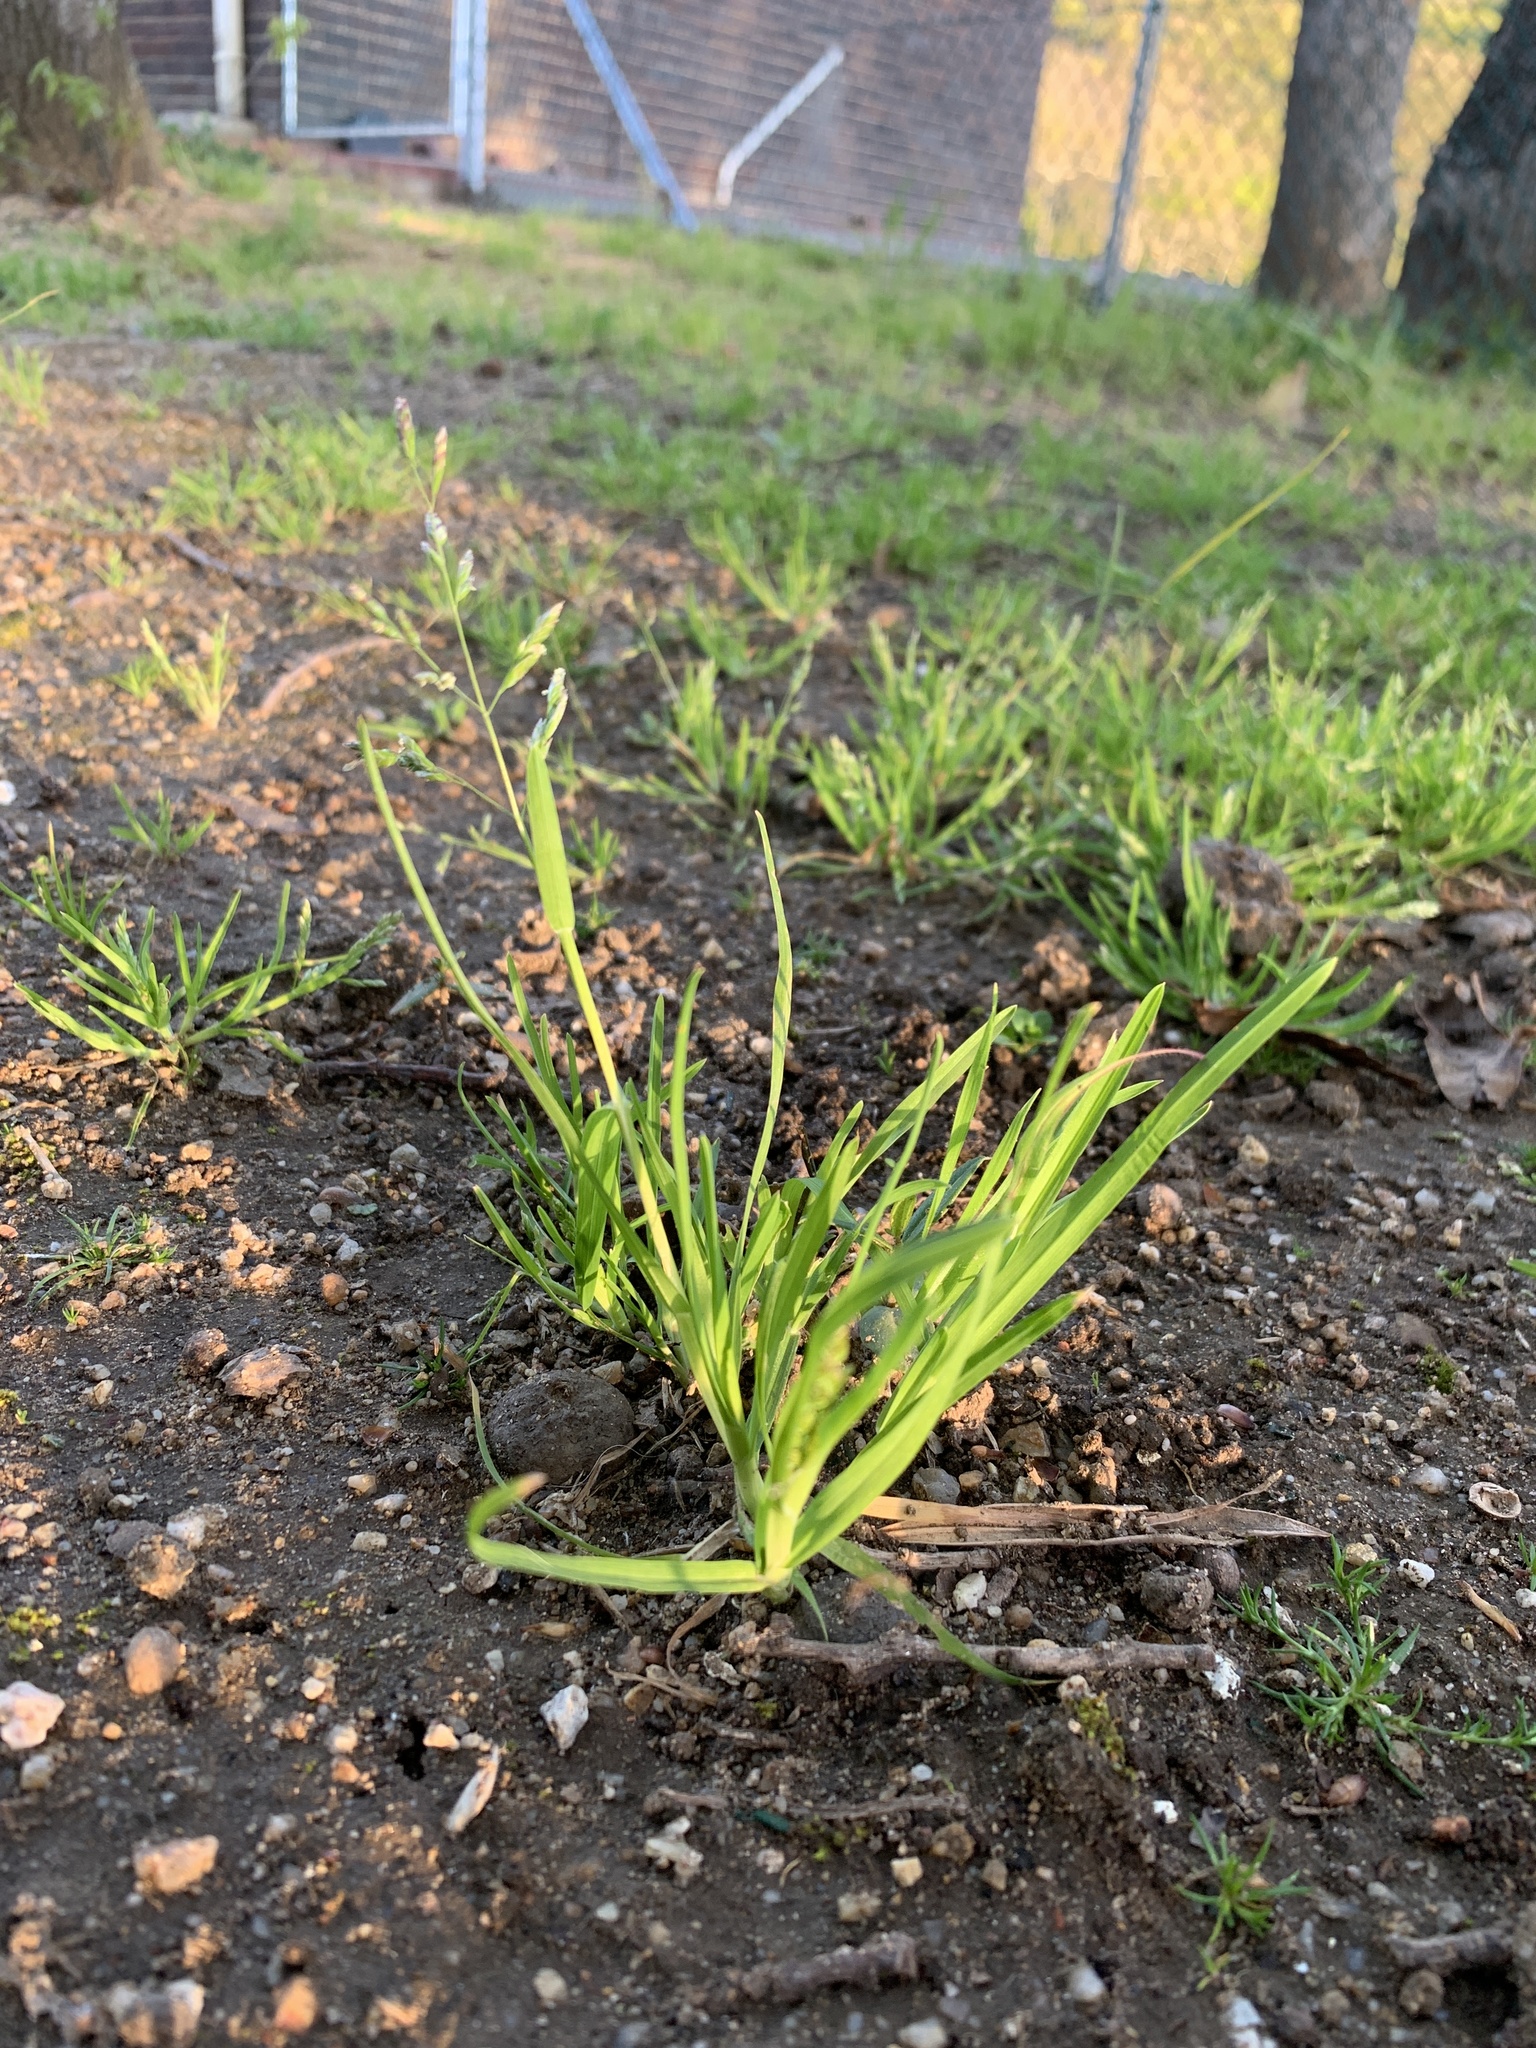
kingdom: Plantae
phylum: Tracheophyta
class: Liliopsida
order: Poales
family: Poaceae
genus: Poa
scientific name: Poa annua
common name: Annual bluegrass
